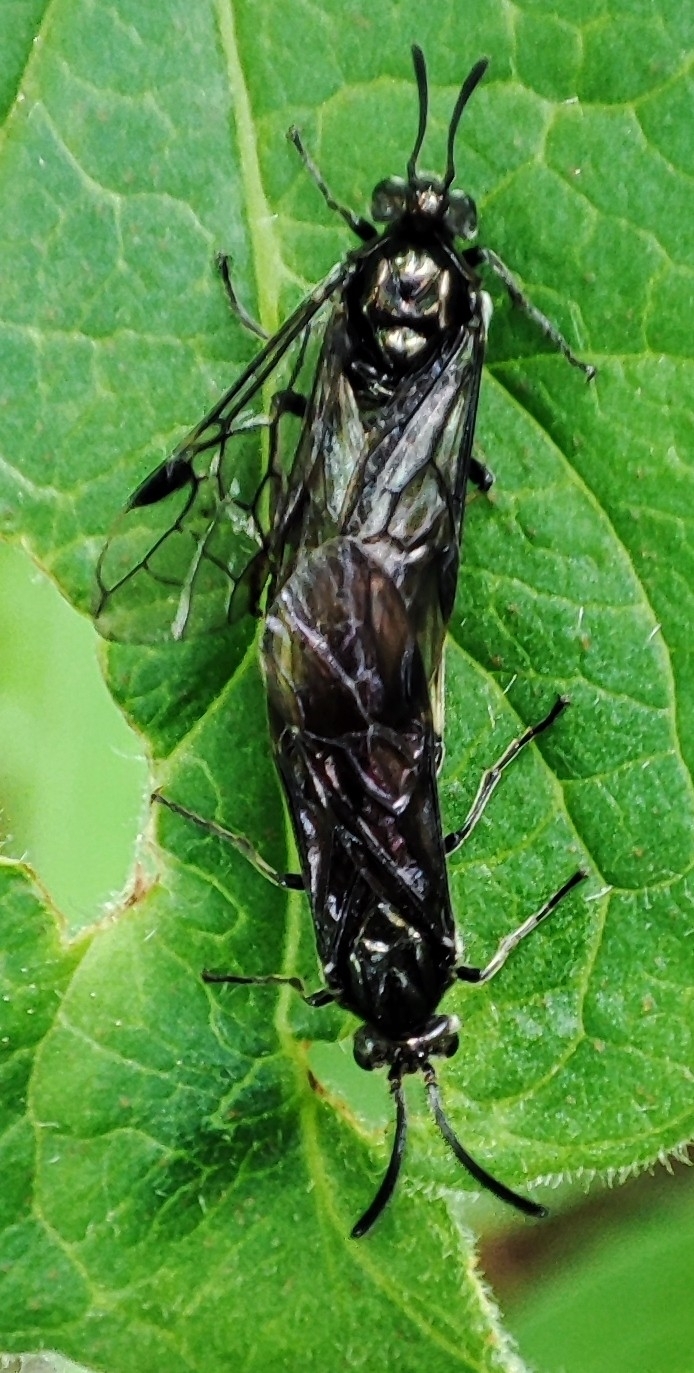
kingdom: Animalia
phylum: Arthropoda
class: Insecta
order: Hymenoptera
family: Argidae
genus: Arge
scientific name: Arge
